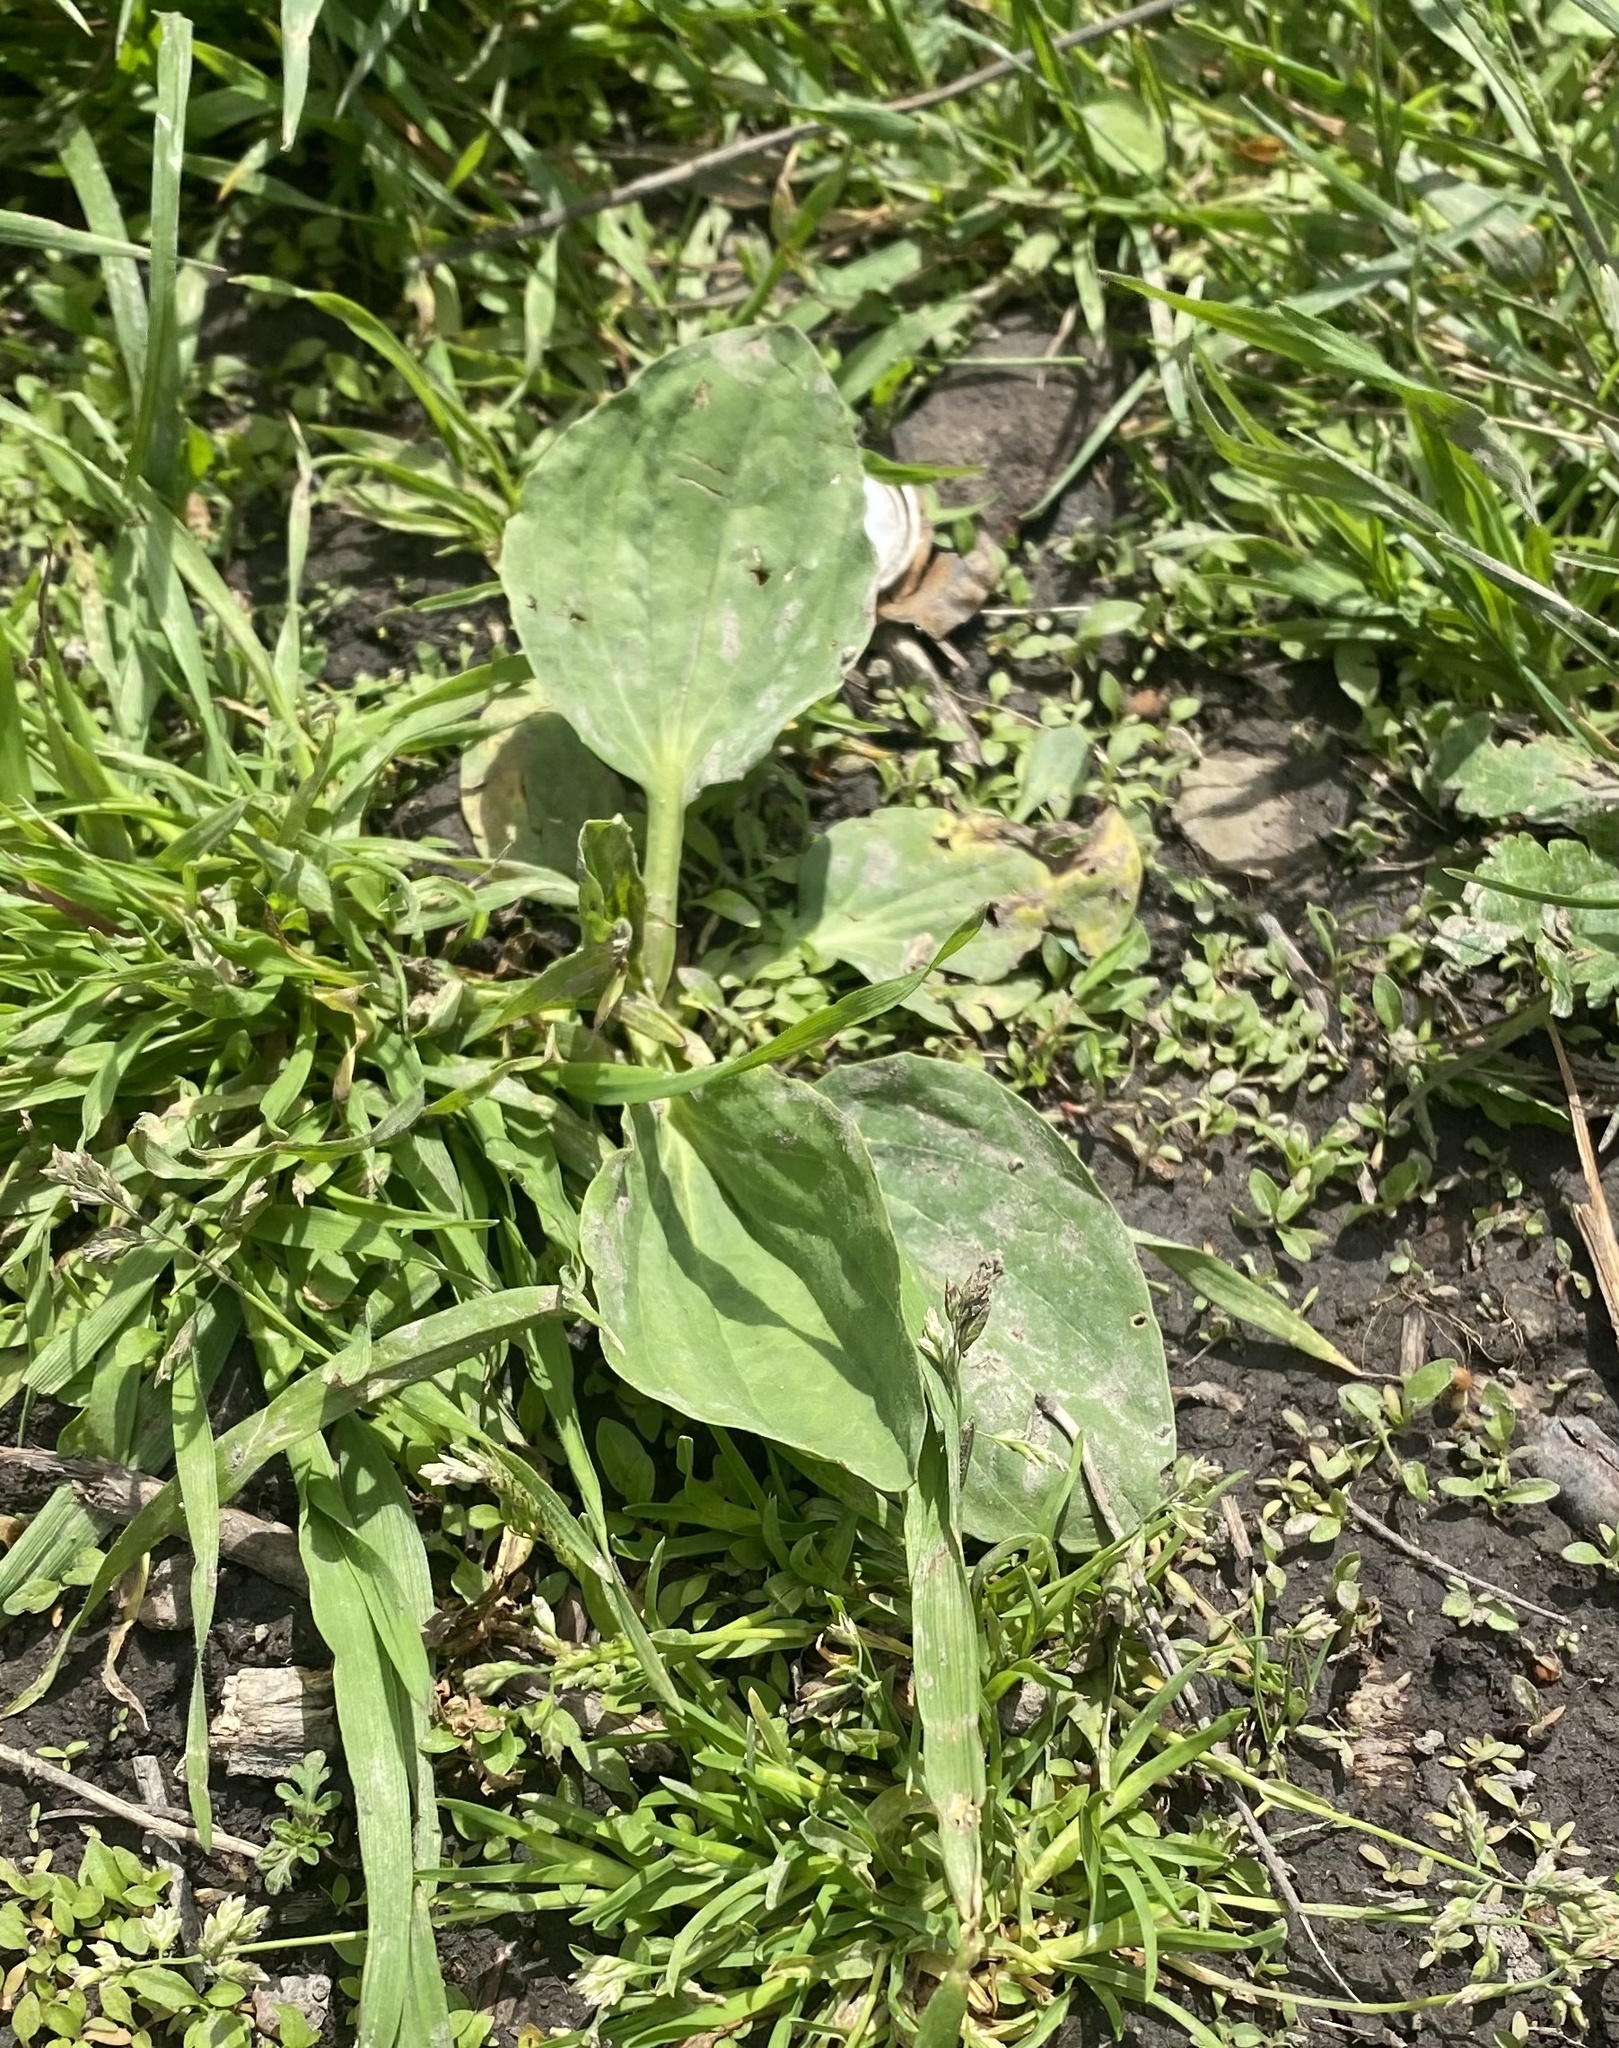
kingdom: Plantae
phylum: Tracheophyta
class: Magnoliopsida
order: Lamiales
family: Plantaginaceae
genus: Plantago
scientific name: Plantago major
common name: Common plantain
